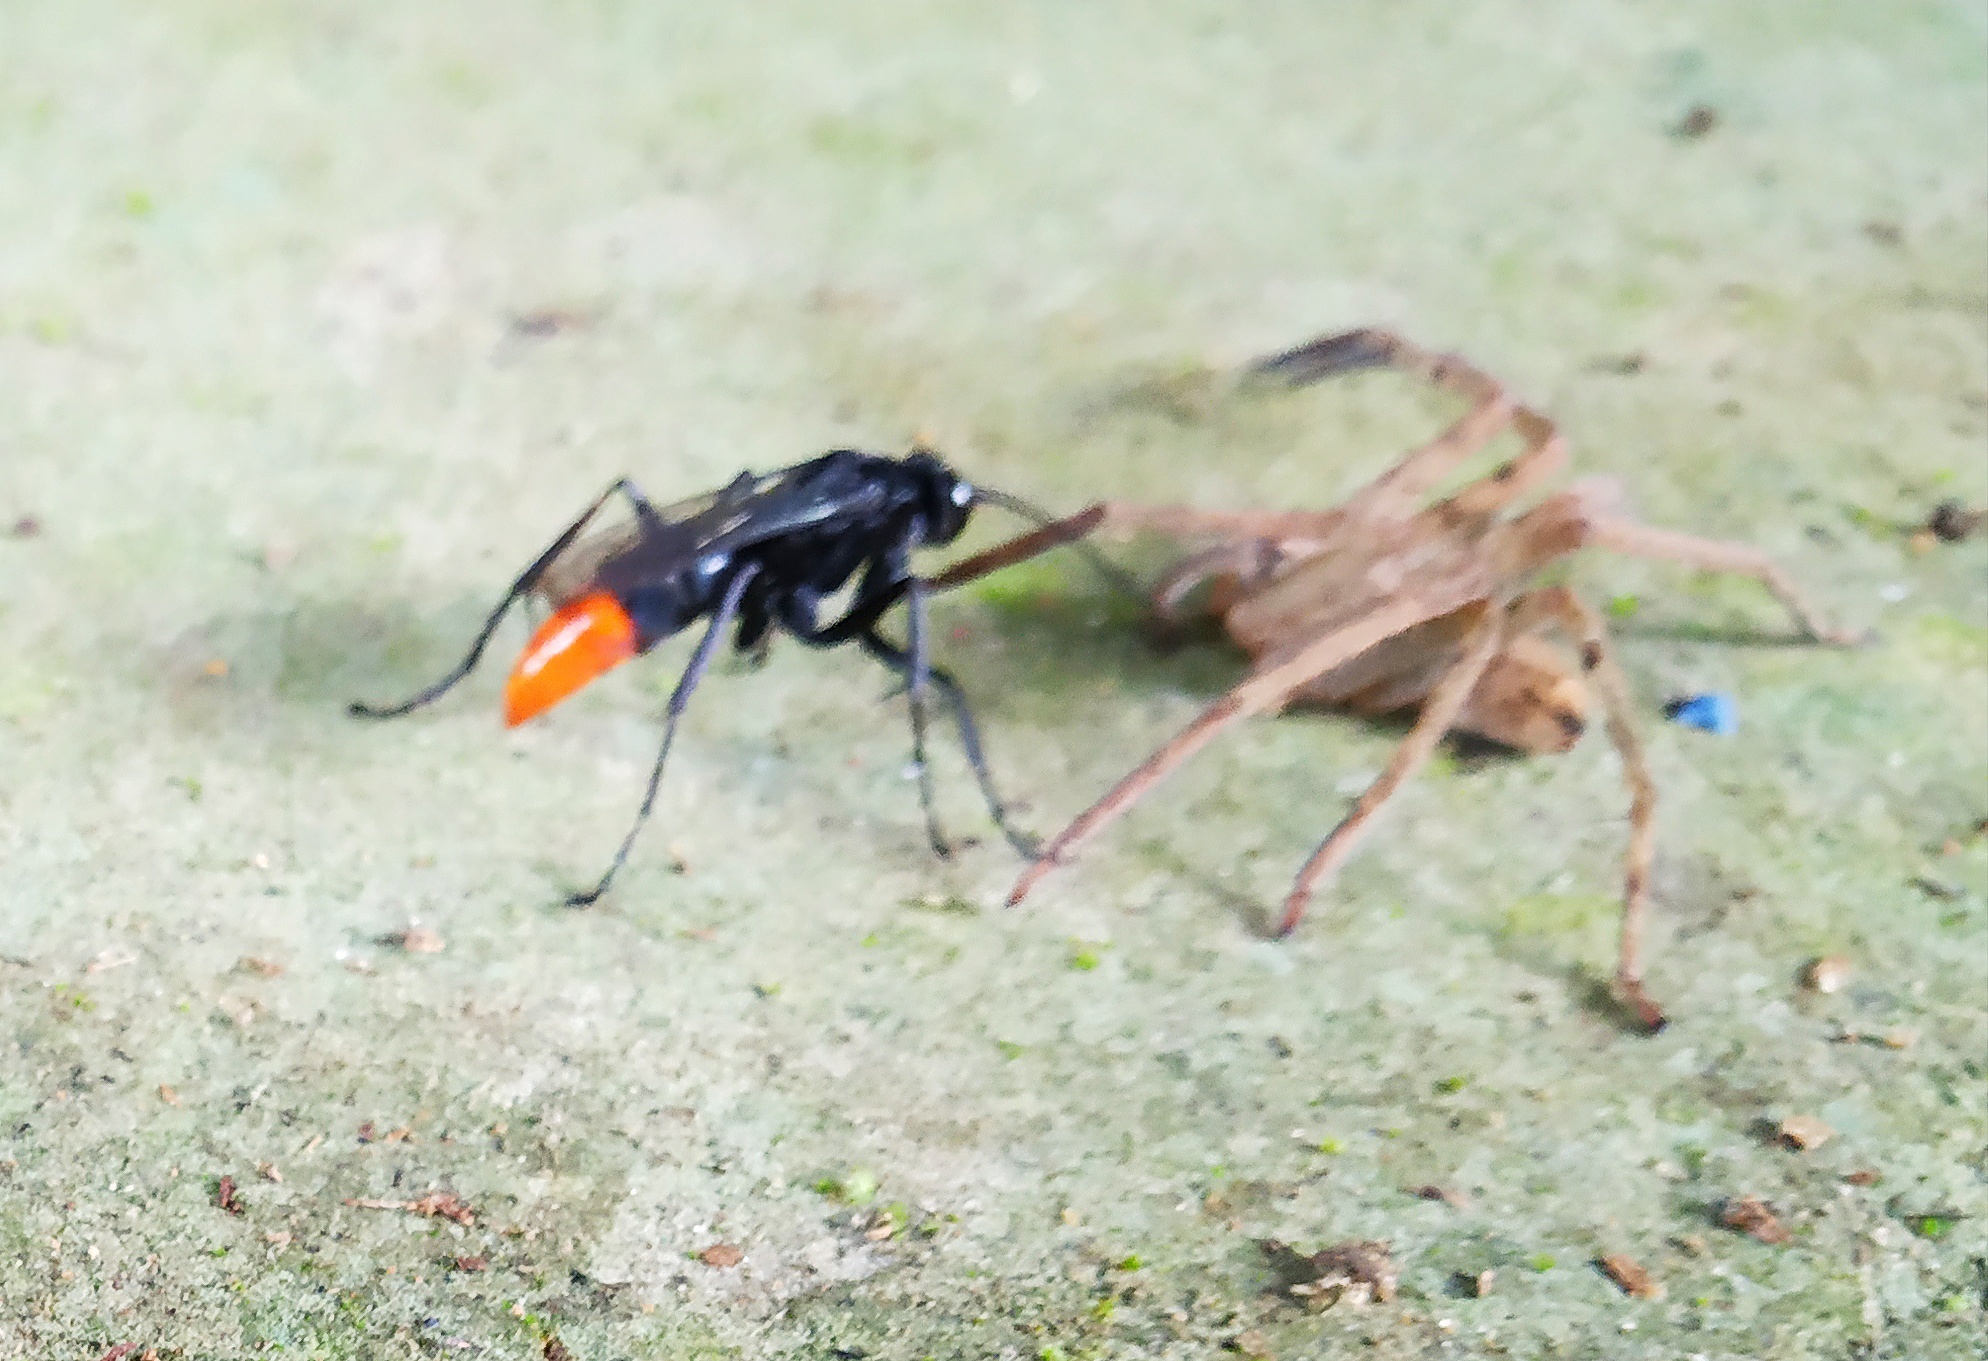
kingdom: Animalia
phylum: Arthropoda
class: Insecta
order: Hymenoptera
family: Pompilidae
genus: Tachypompilus
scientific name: Tachypompilus analis
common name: Spider wasp
